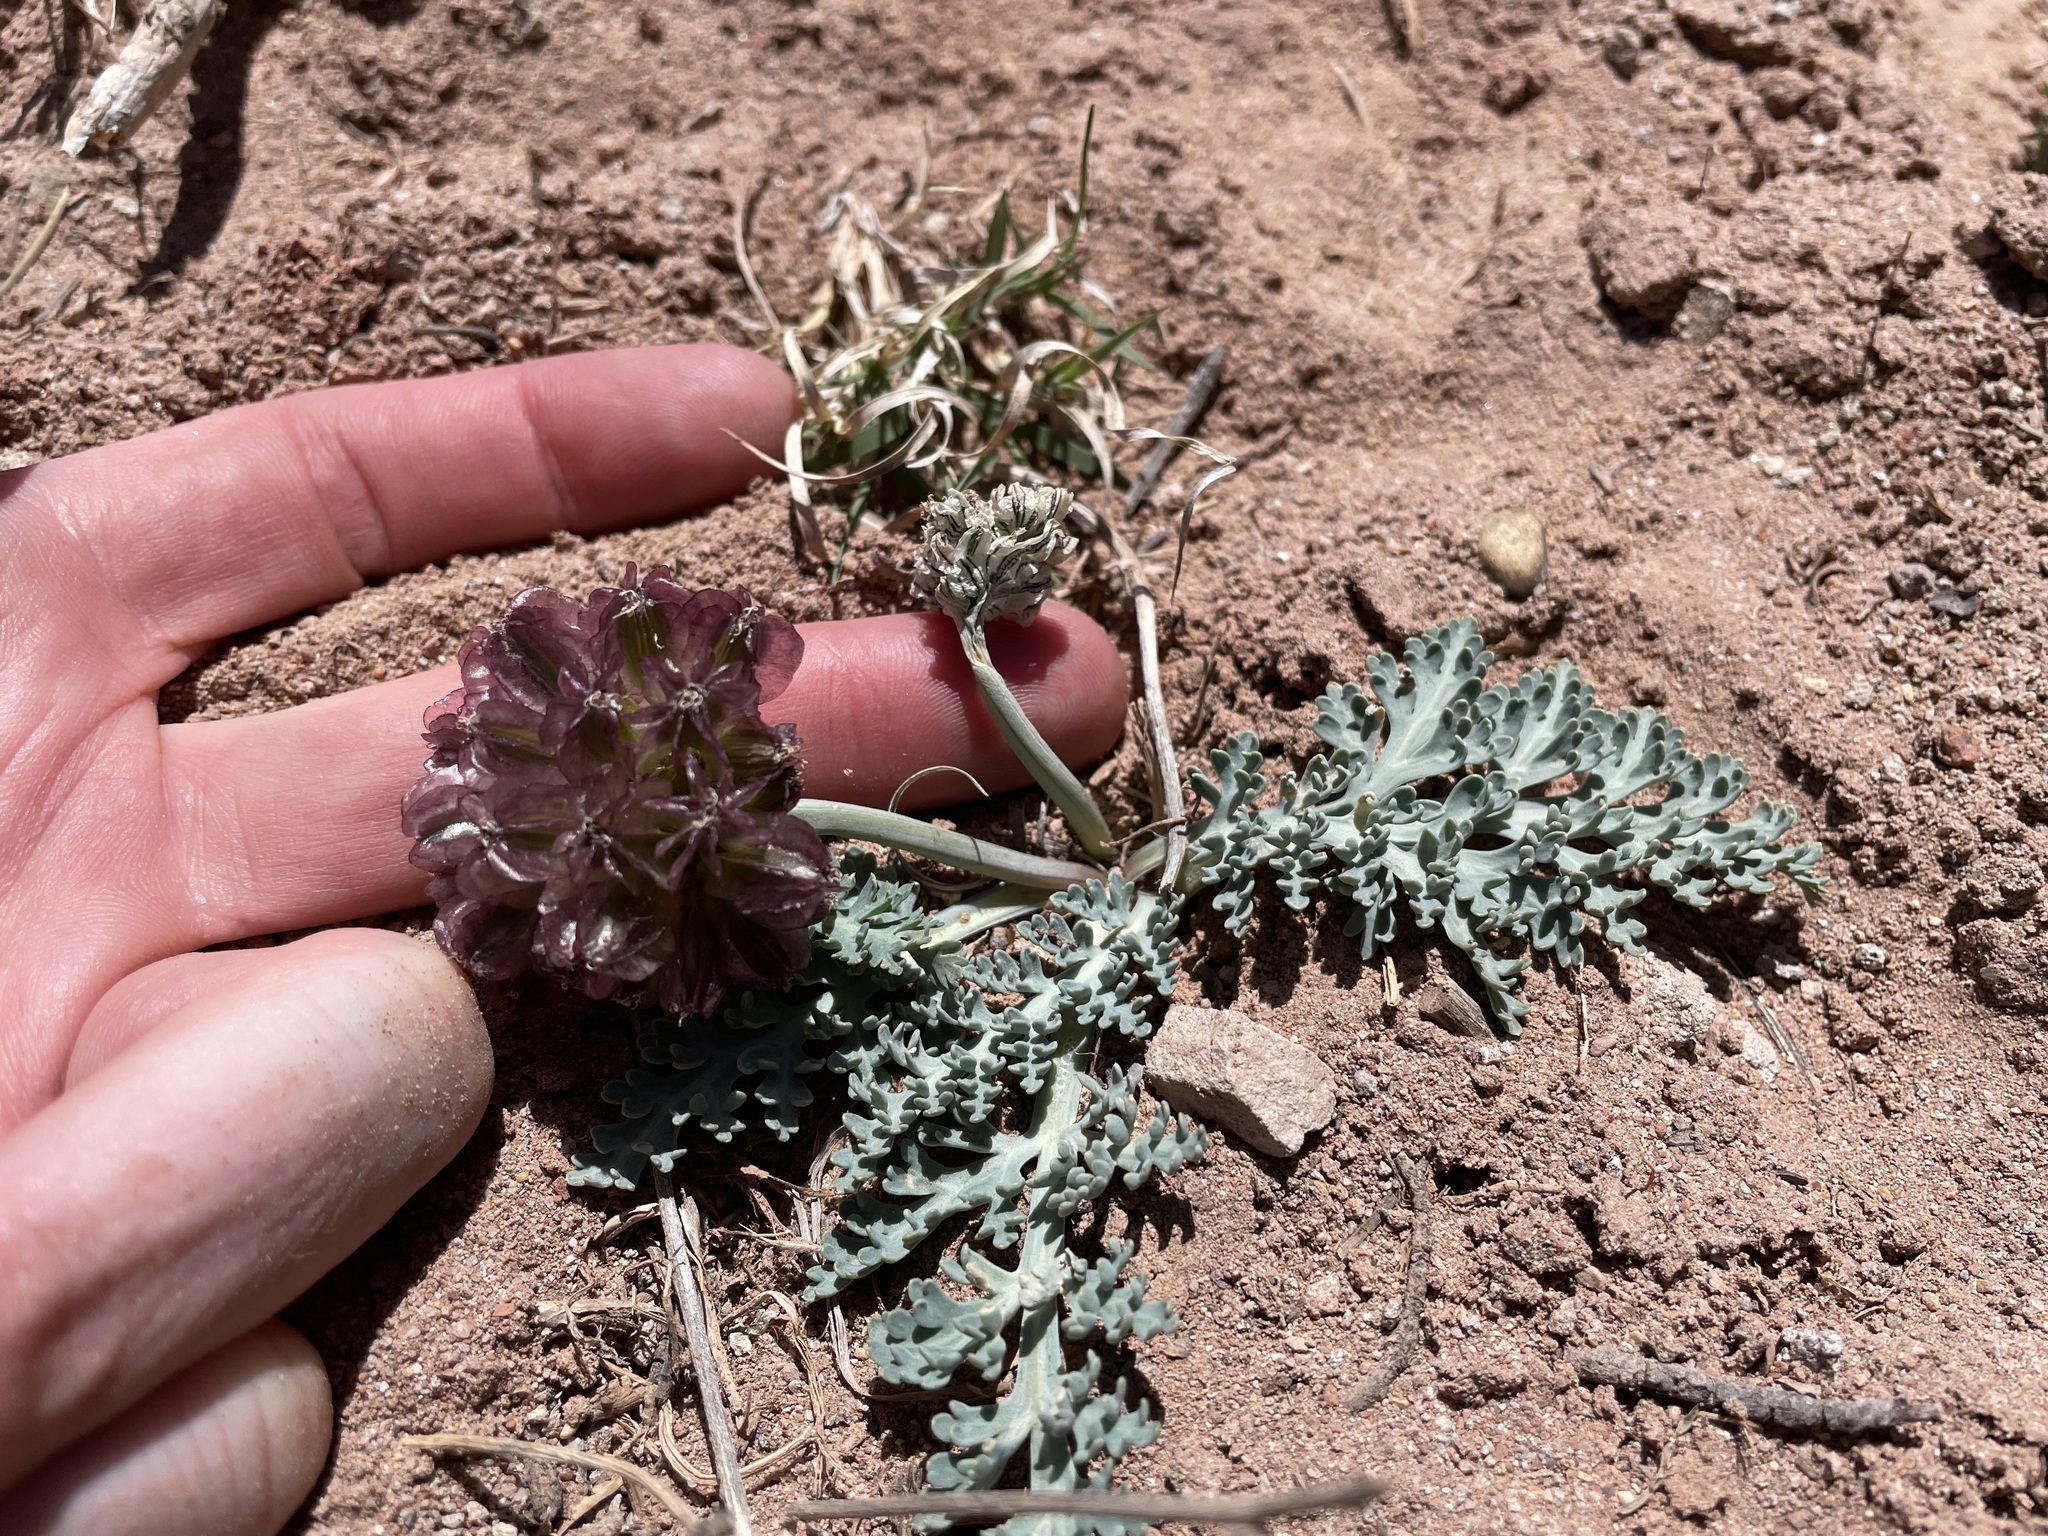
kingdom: Plantae
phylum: Tracheophyta
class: Magnoliopsida
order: Apiales
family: Apiaceae
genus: Vesper
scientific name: Vesper constancei
